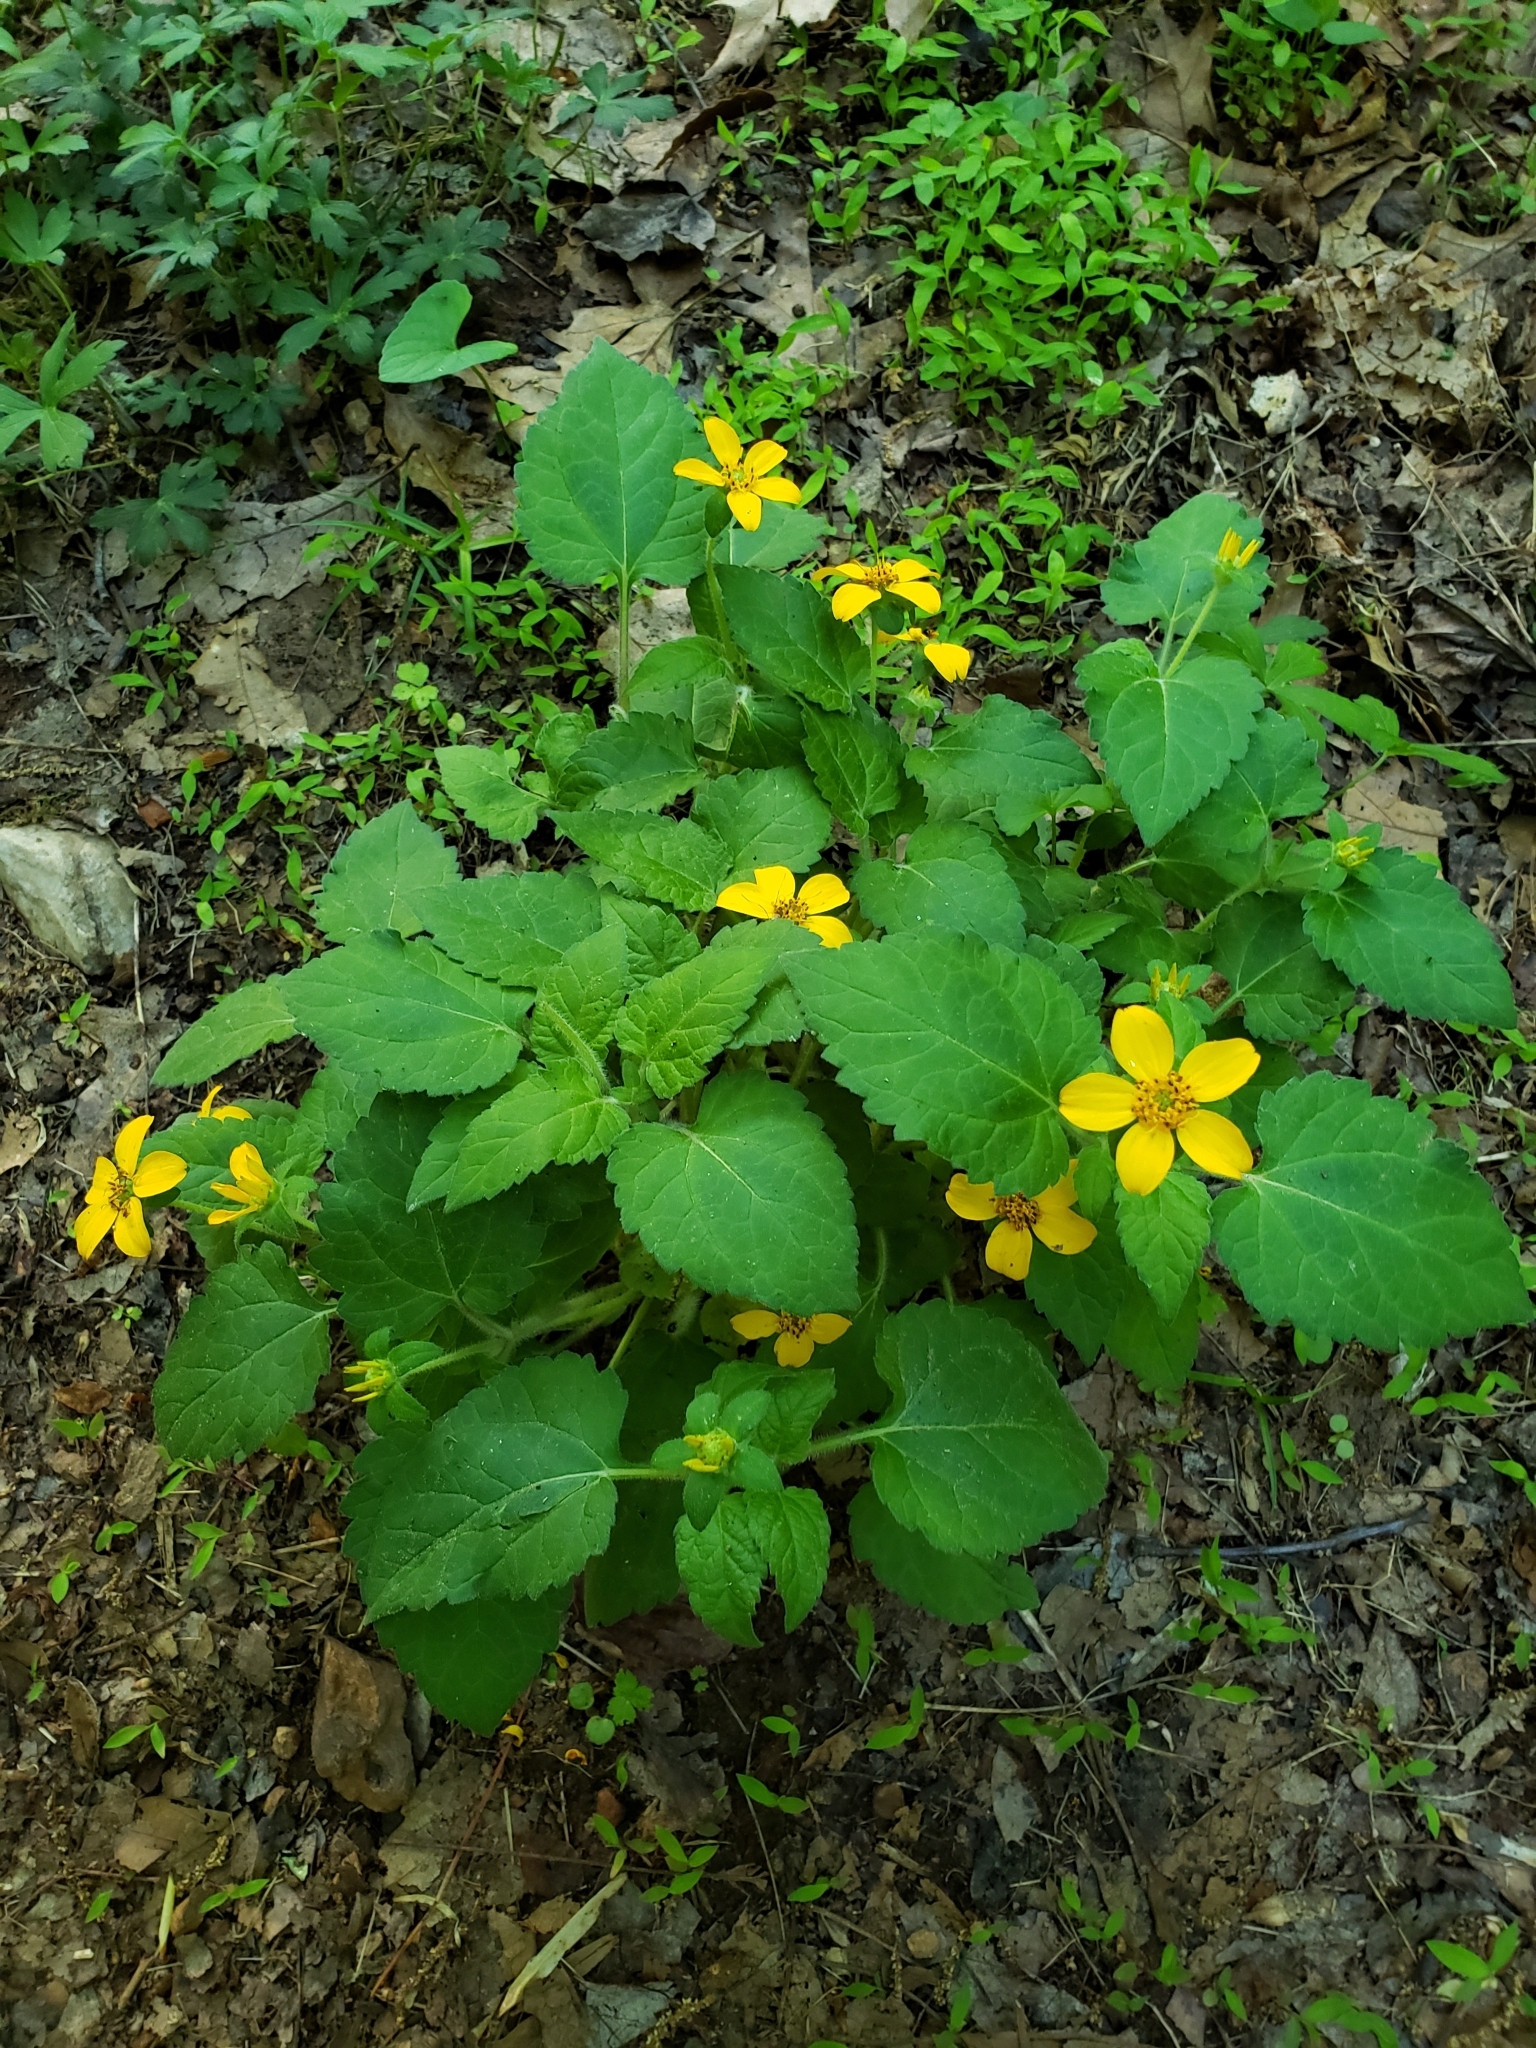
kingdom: Plantae
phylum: Tracheophyta
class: Magnoliopsida
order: Asterales
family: Asteraceae
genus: Chrysogonum
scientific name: Chrysogonum virginianum
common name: Golden-knee
